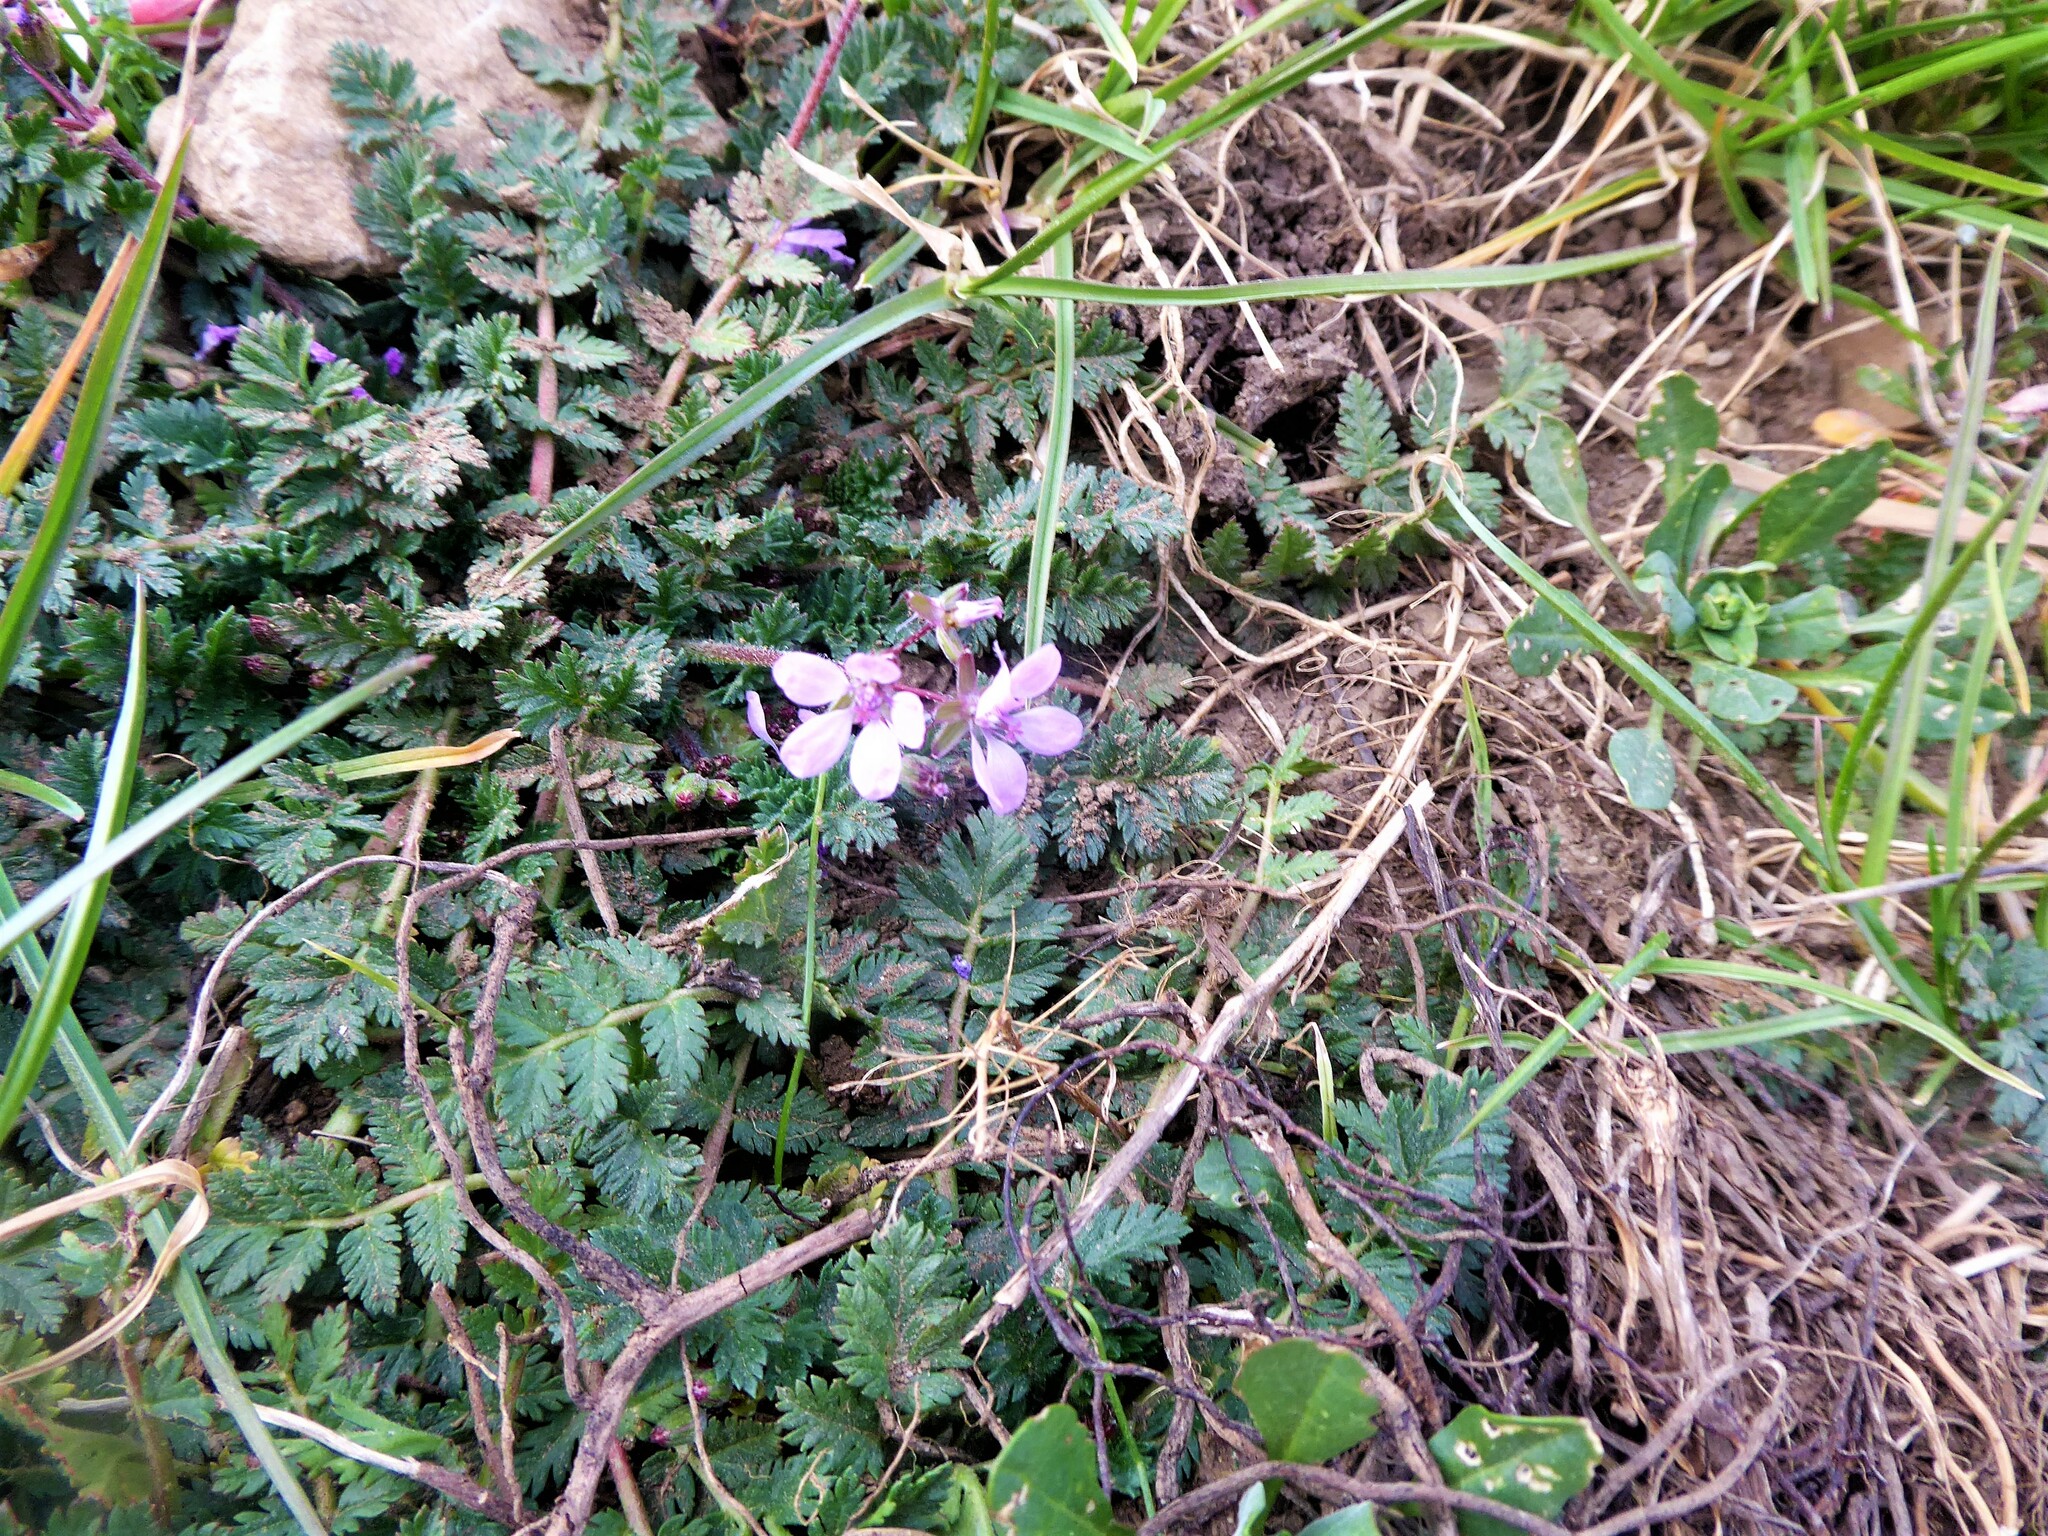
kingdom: Plantae
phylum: Tracheophyta
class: Magnoliopsida
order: Geraniales
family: Geraniaceae
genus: Erodium
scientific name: Erodium cicutarium
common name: Common stork's-bill
